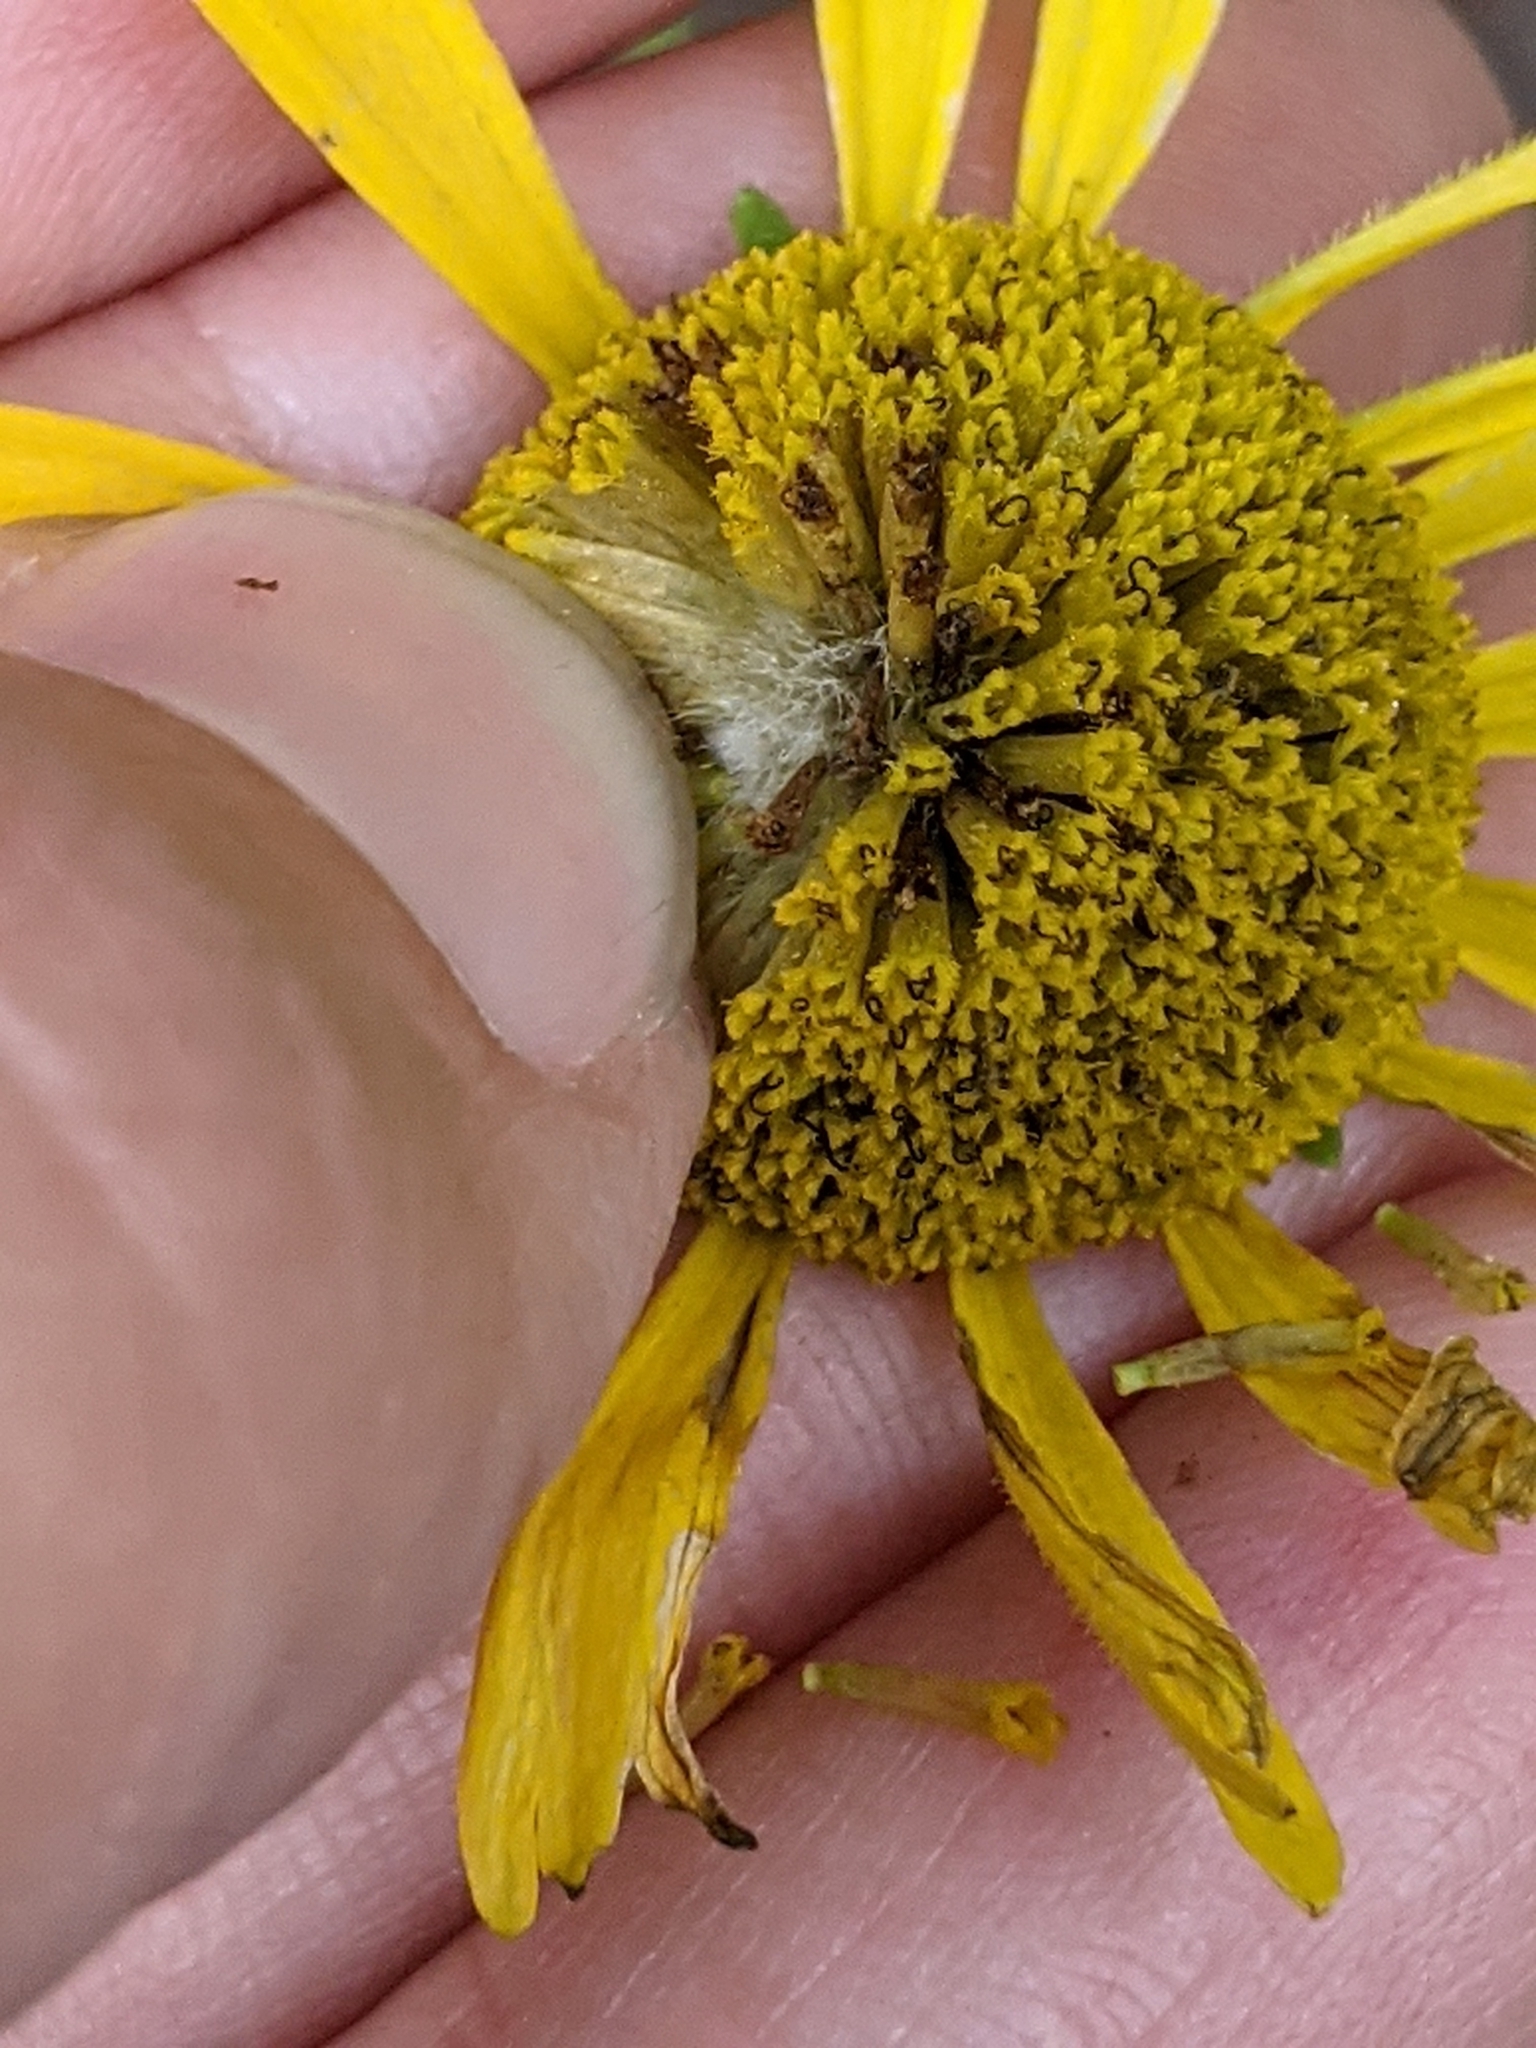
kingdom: Plantae
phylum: Tracheophyta
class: Magnoliopsida
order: Asterales
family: Asteraceae
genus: Helenium
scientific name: Helenium drummondii
